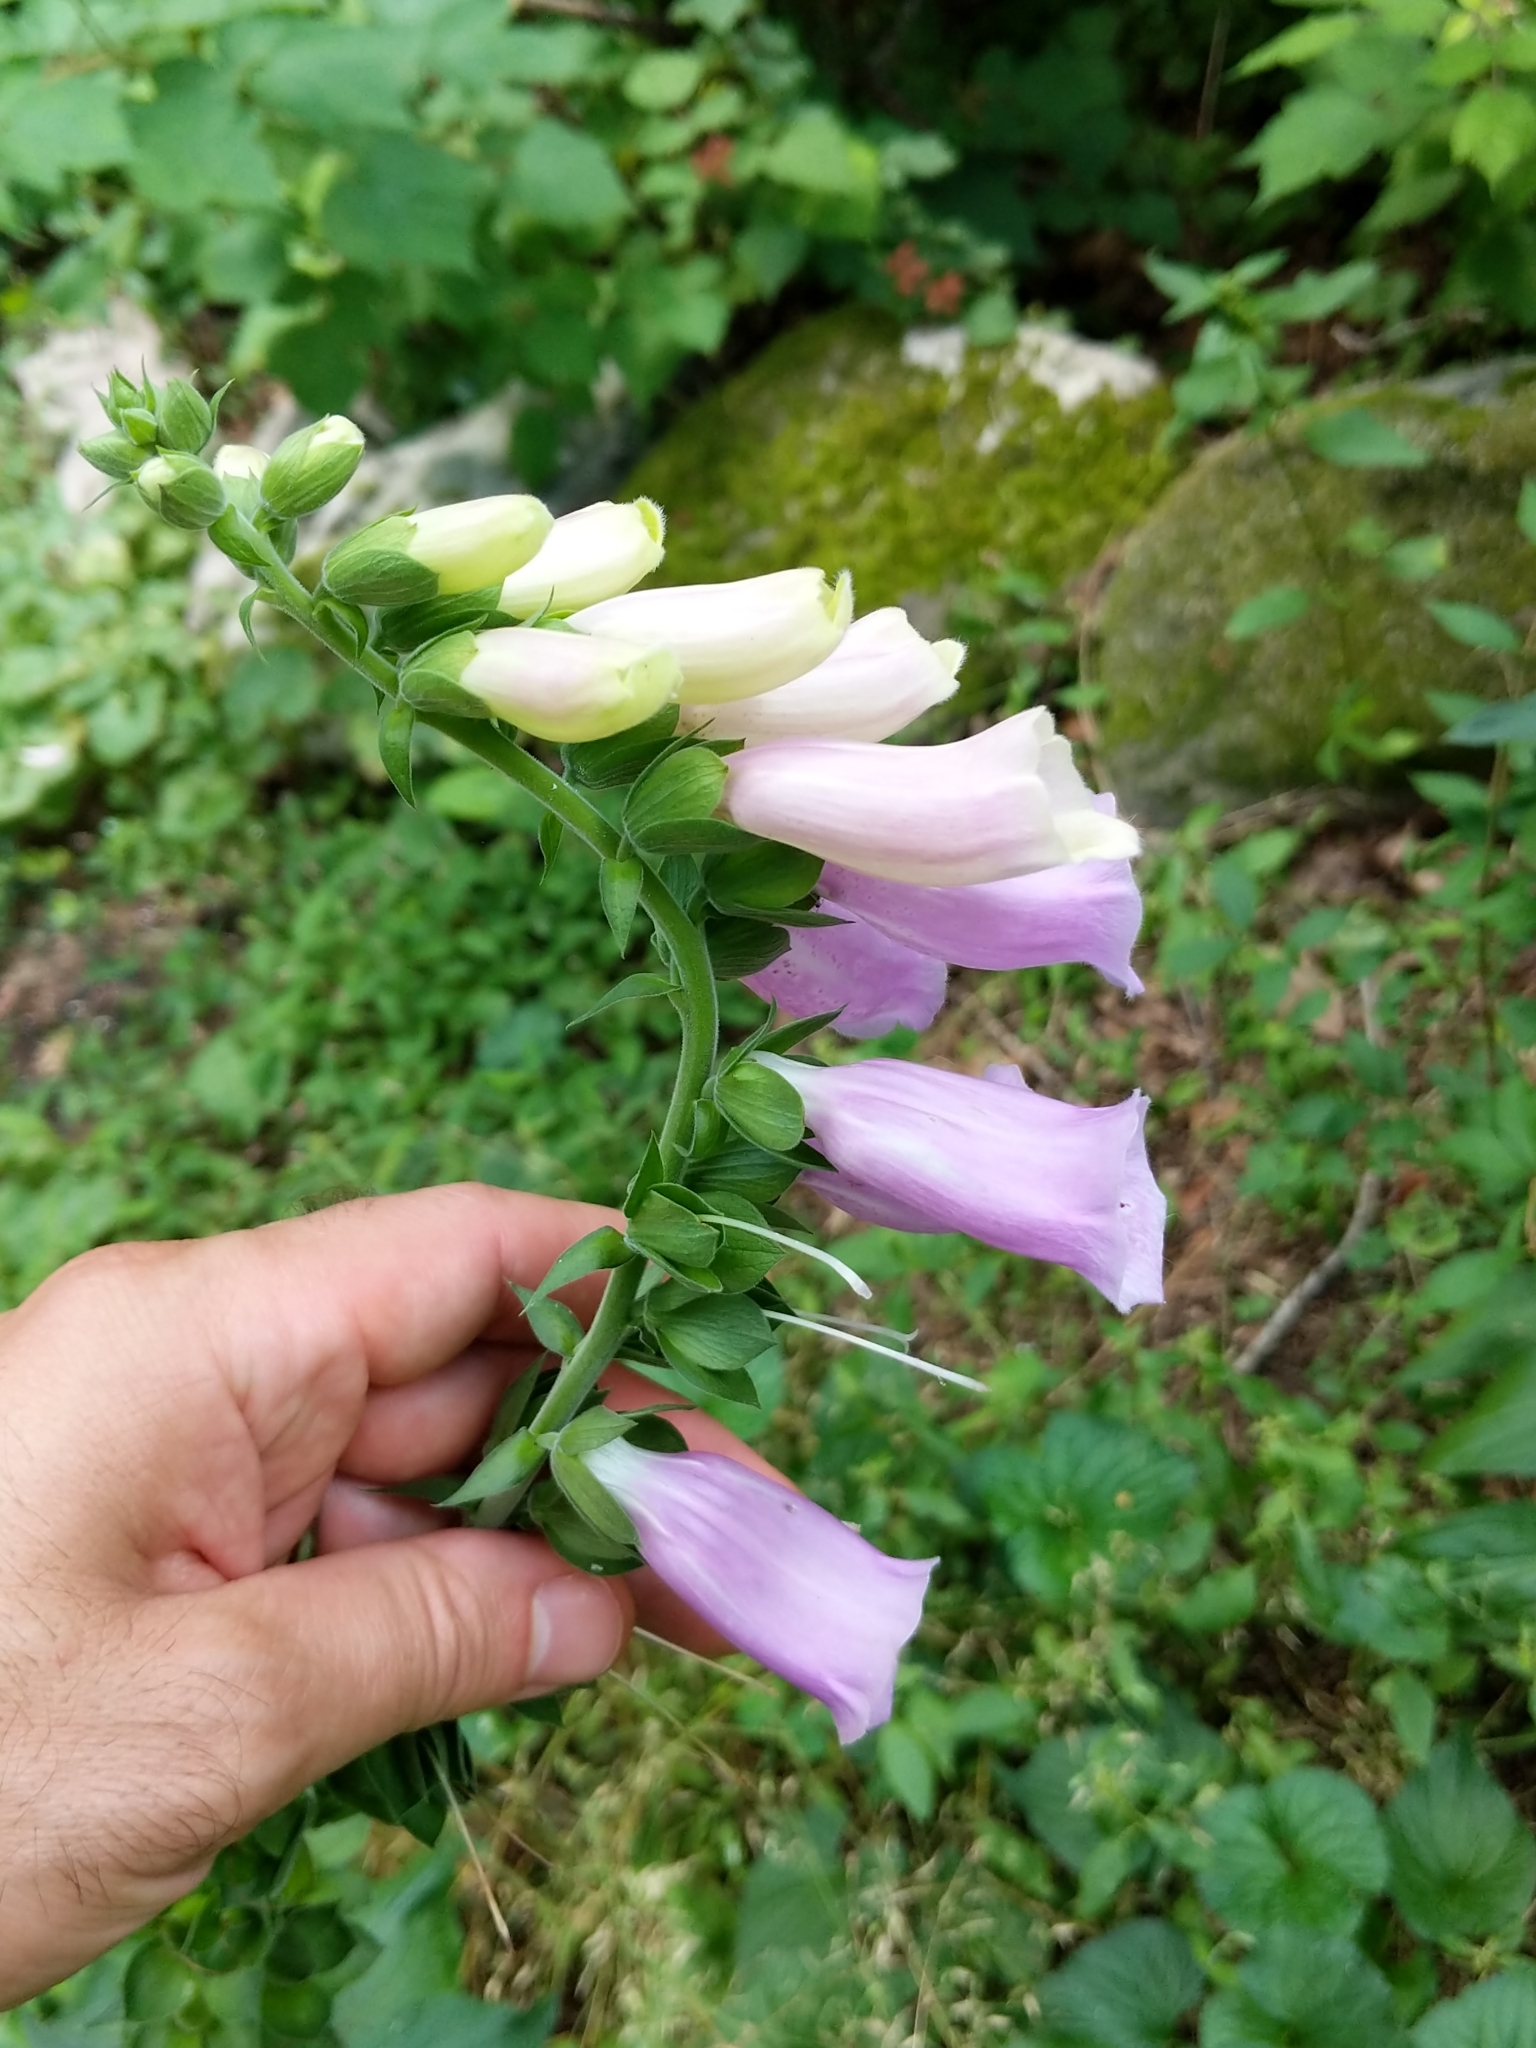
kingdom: Plantae
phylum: Tracheophyta
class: Magnoliopsida
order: Lamiales
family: Plantaginaceae
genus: Digitalis
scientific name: Digitalis purpurea
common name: Foxglove
